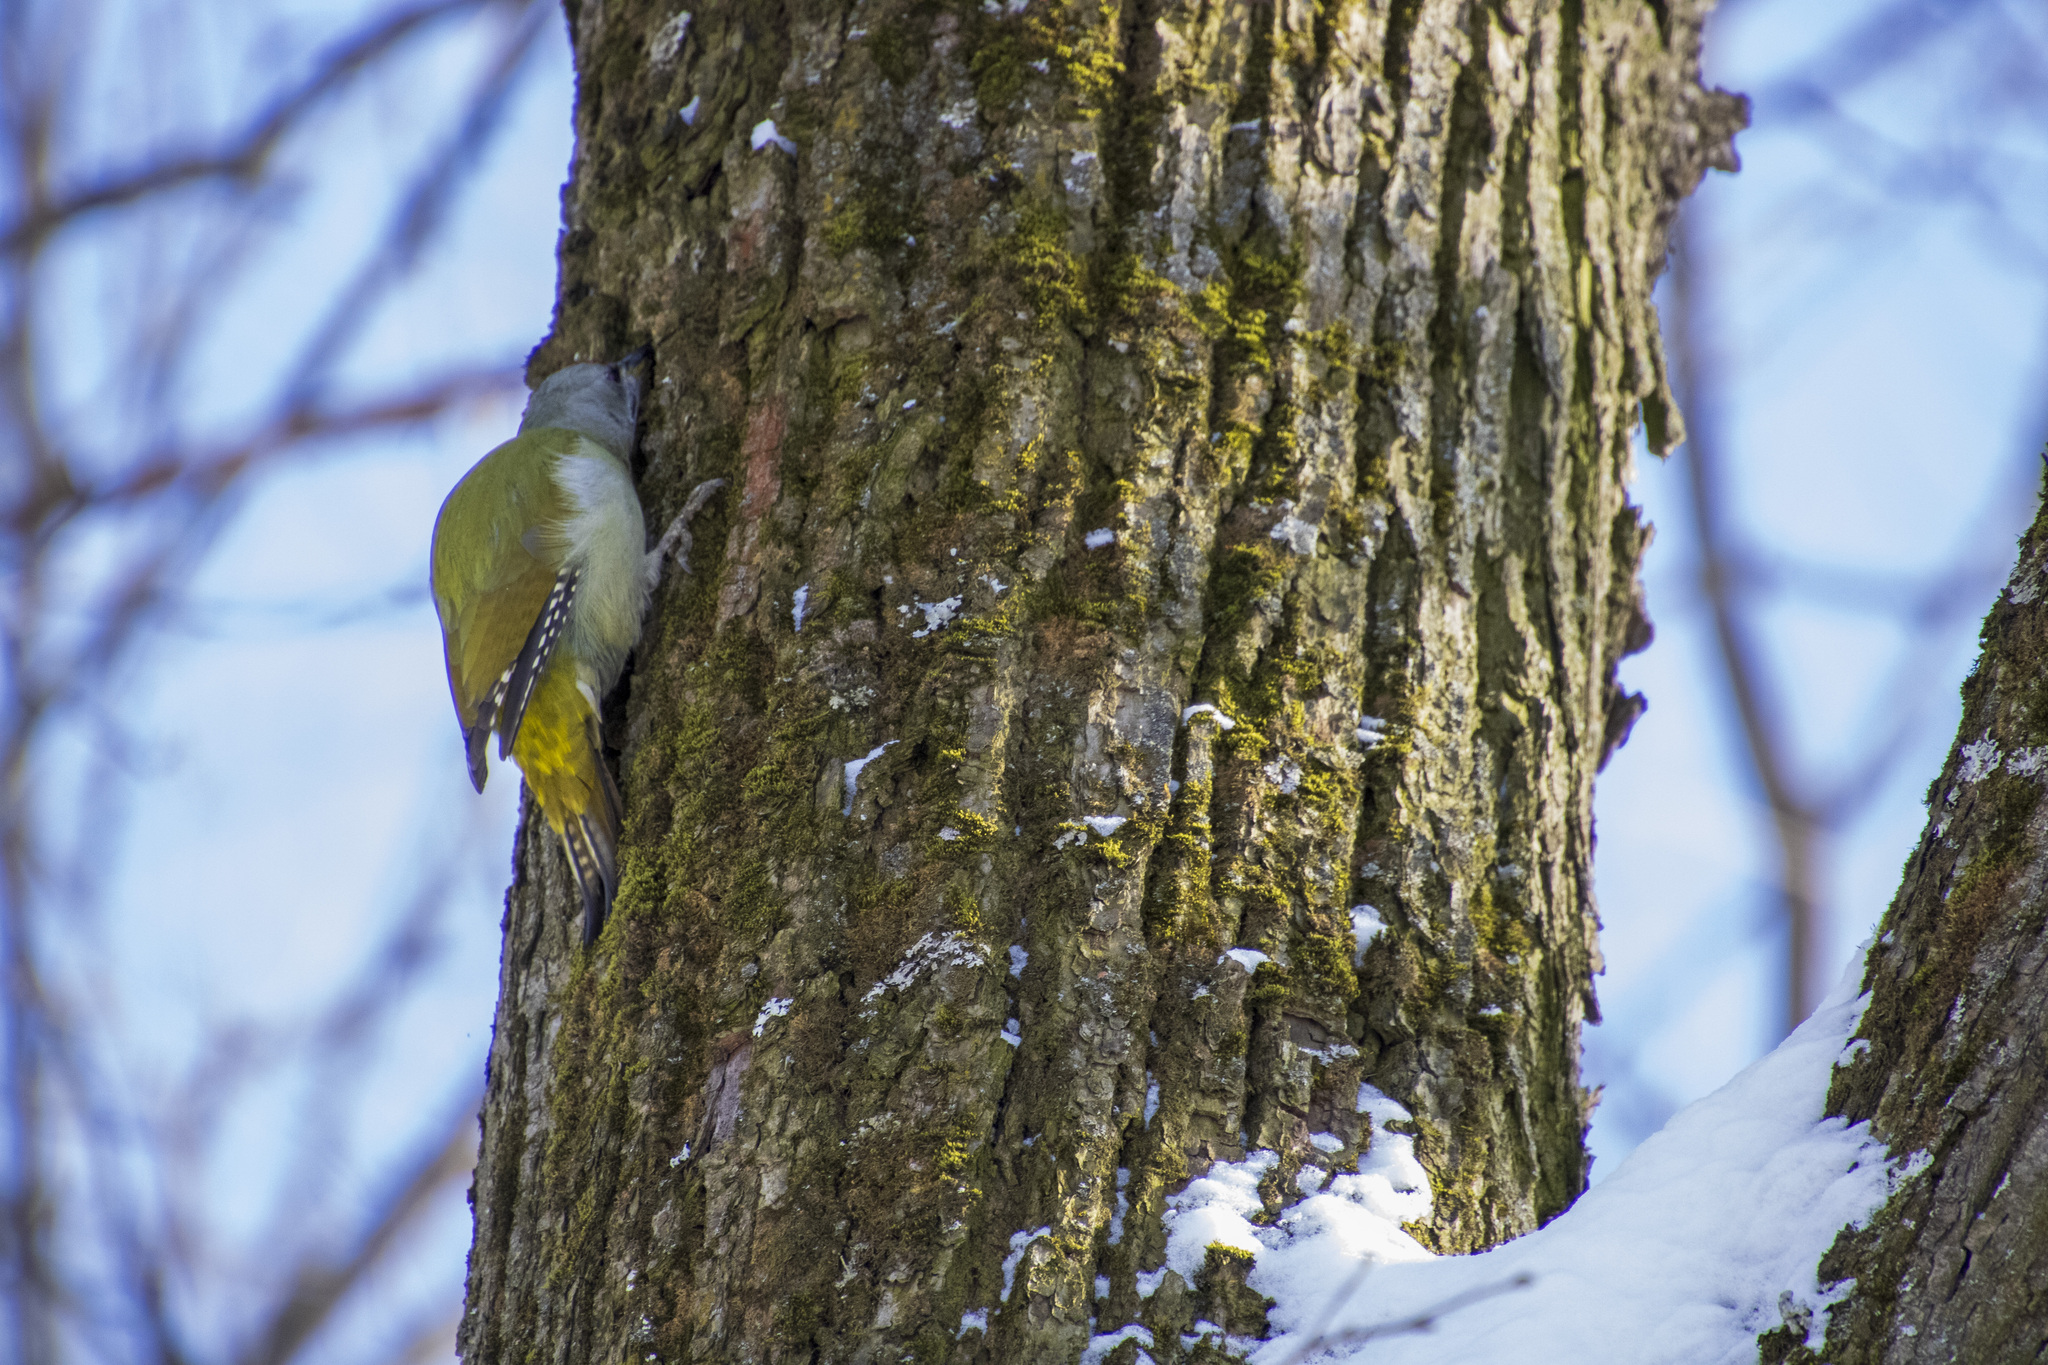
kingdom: Animalia
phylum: Chordata
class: Aves
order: Piciformes
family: Picidae
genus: Picus
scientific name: Picus canus
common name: Grey-headed woodpecker
